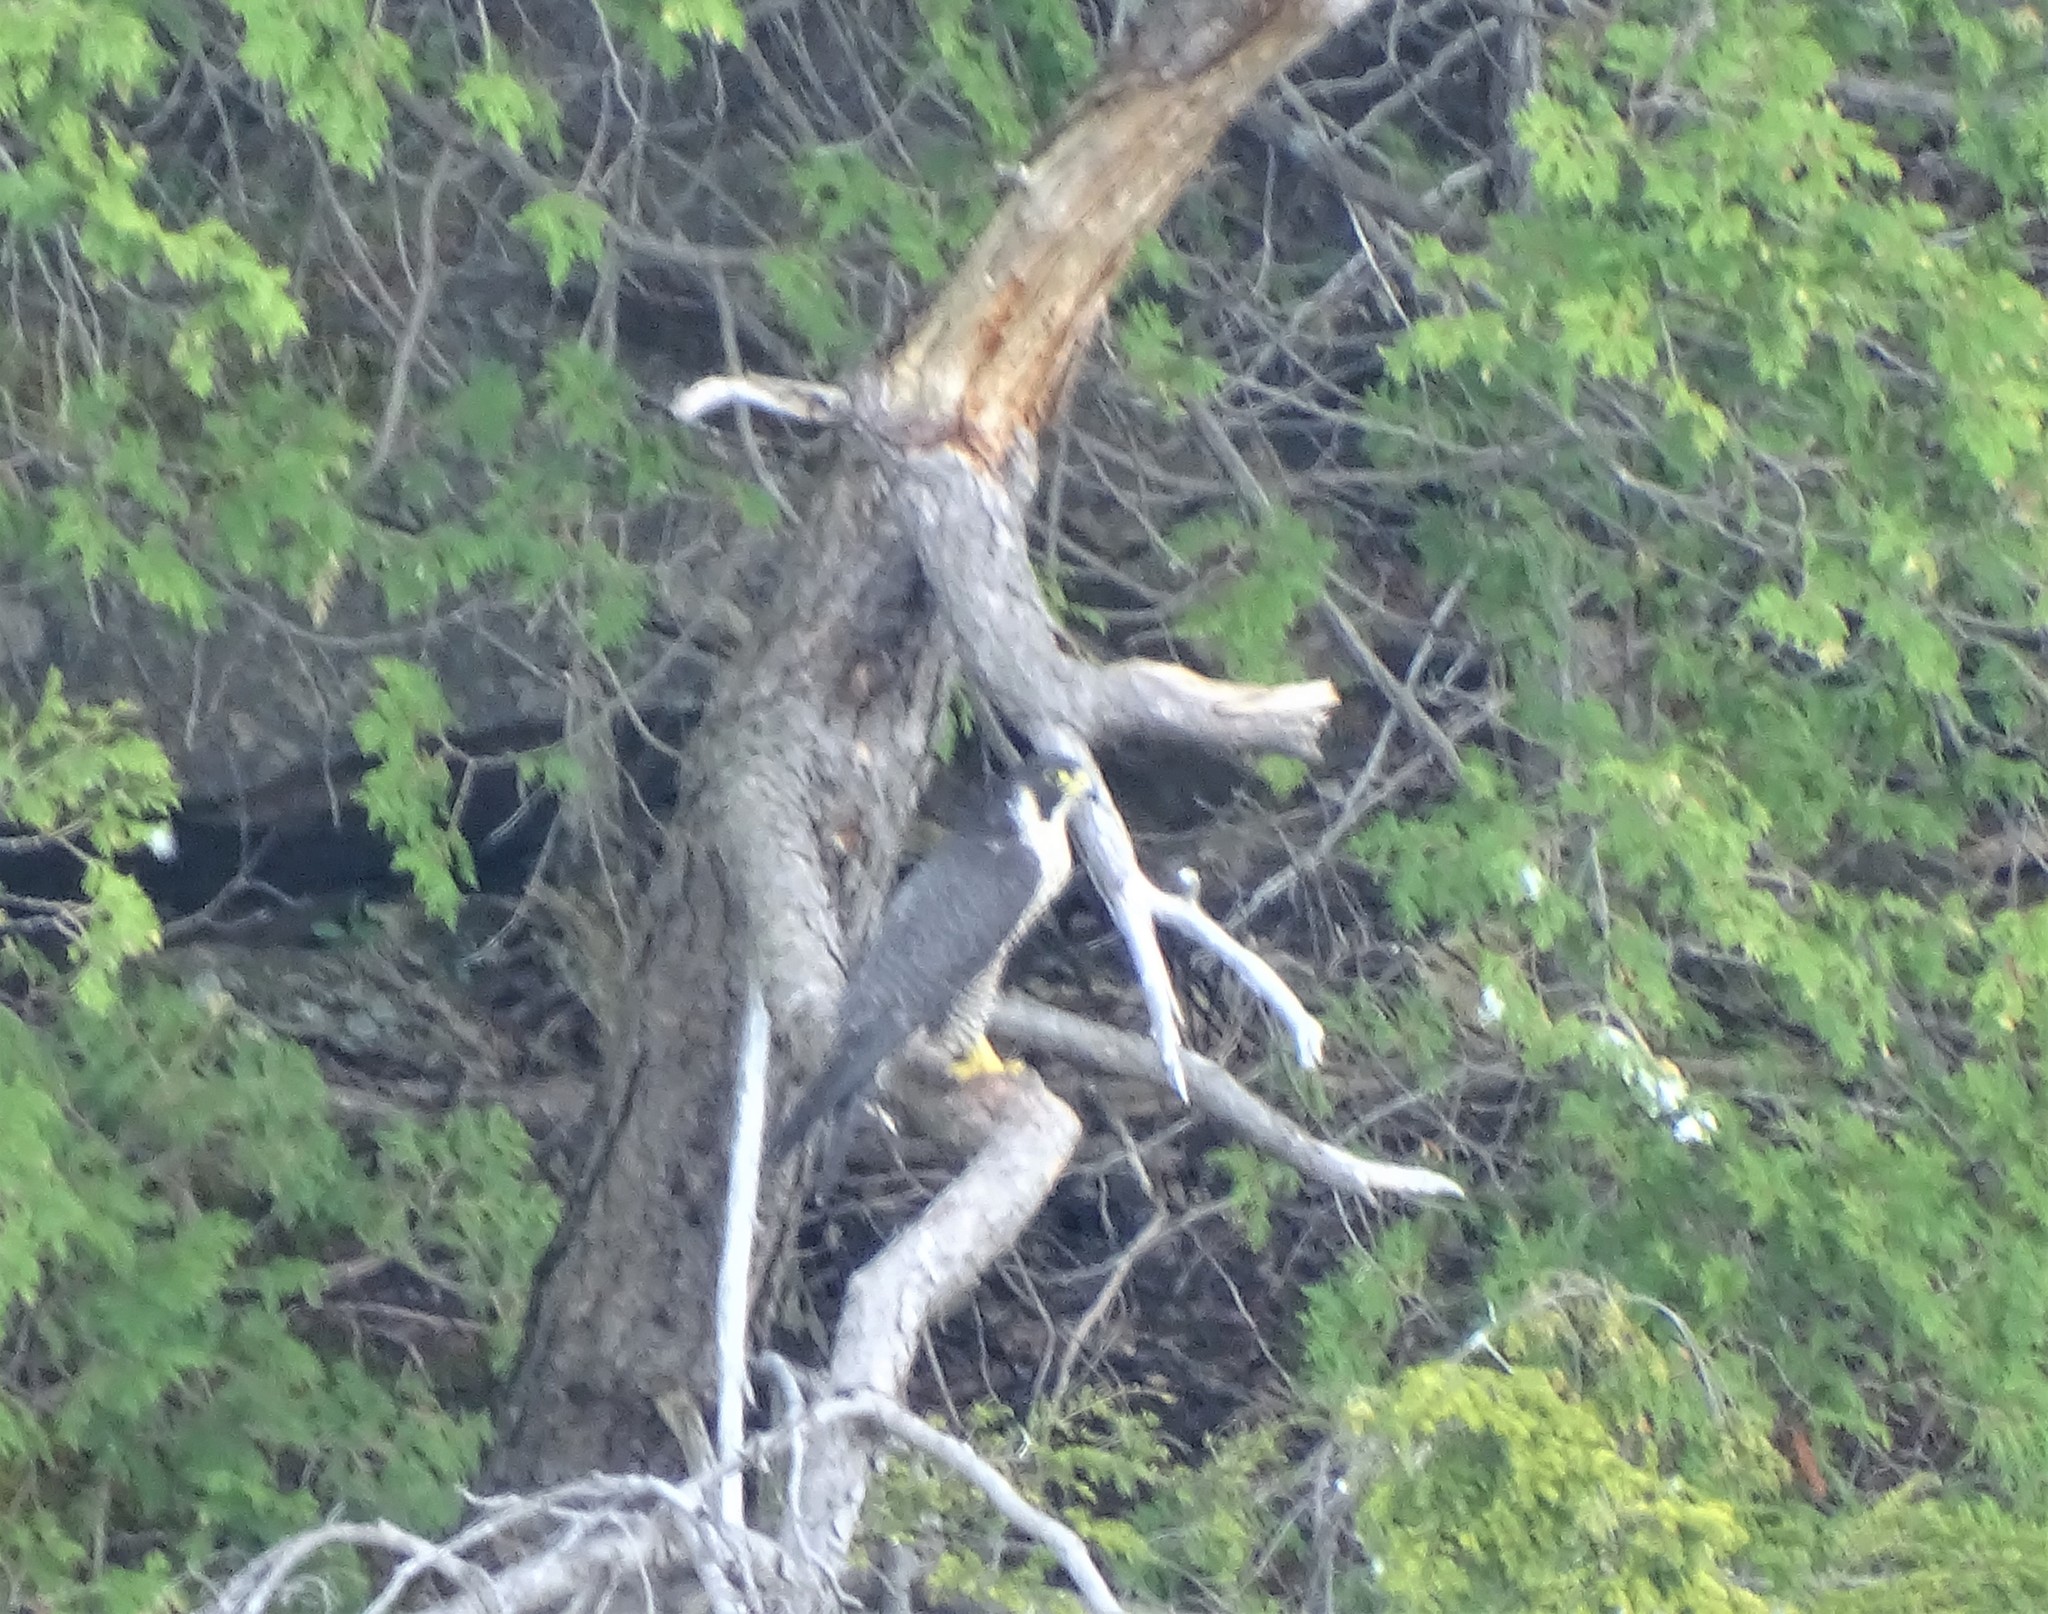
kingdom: Animalia
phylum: Chordata
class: Aves
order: Falconiformes
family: Falconidae
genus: Falco
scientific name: Falco peregrinus
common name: Peregrine falcon
